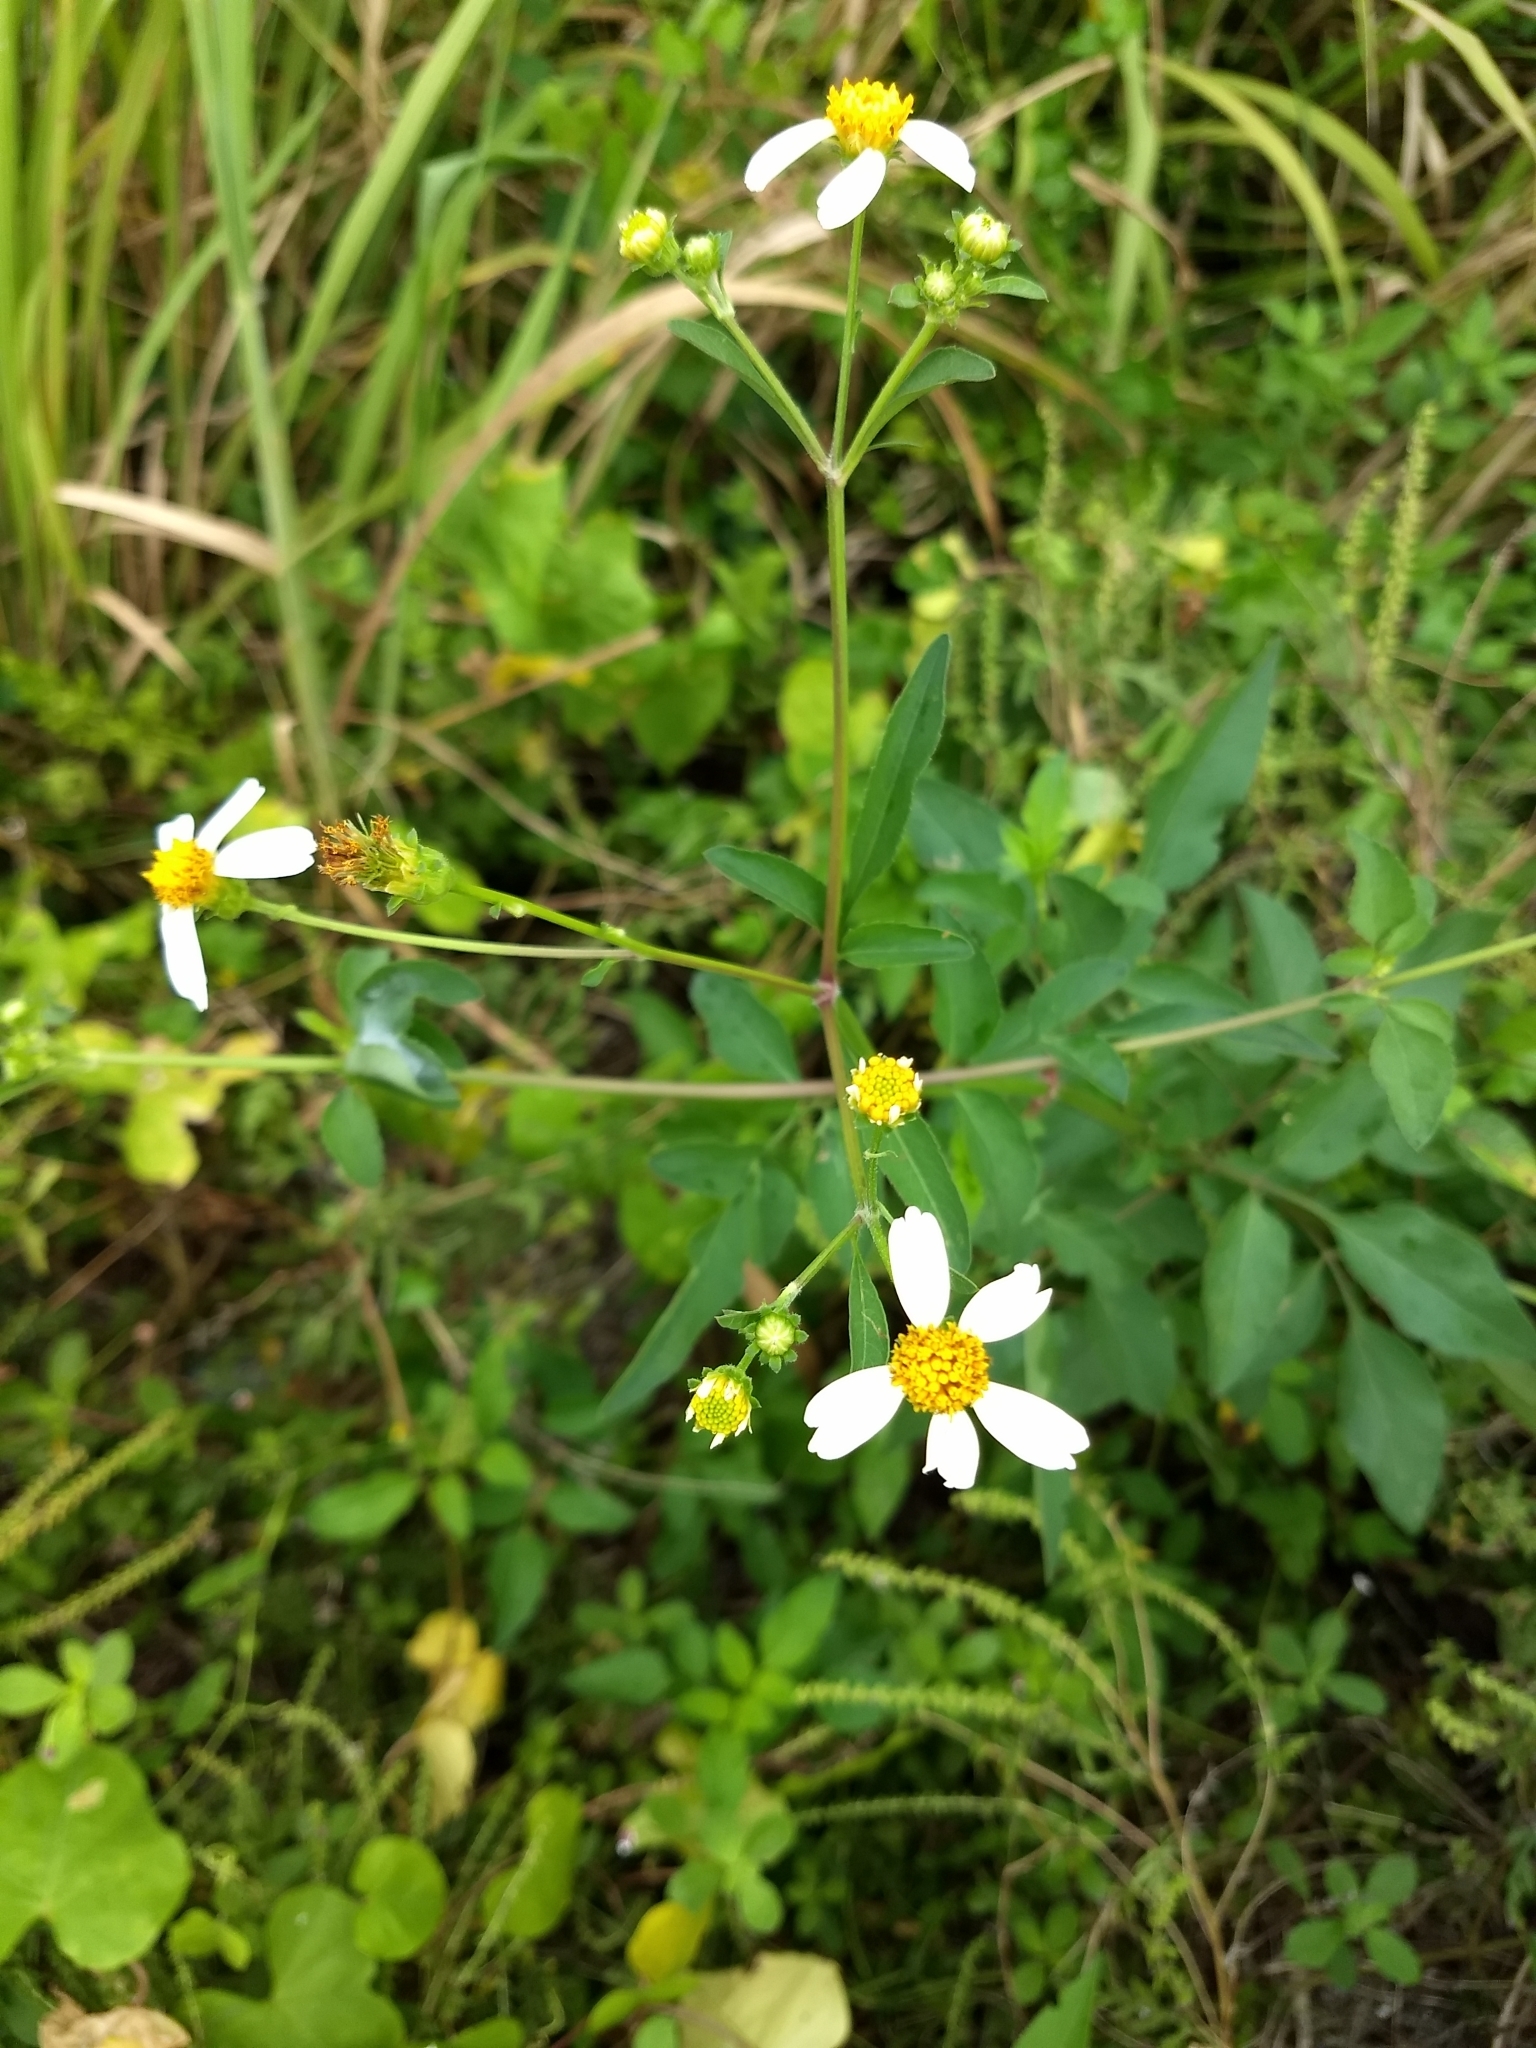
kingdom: Plantae
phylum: Tracheophyta
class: Magnoliopsida
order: Asterales
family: Asteraceae
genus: Bidens
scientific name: Bidens alba
